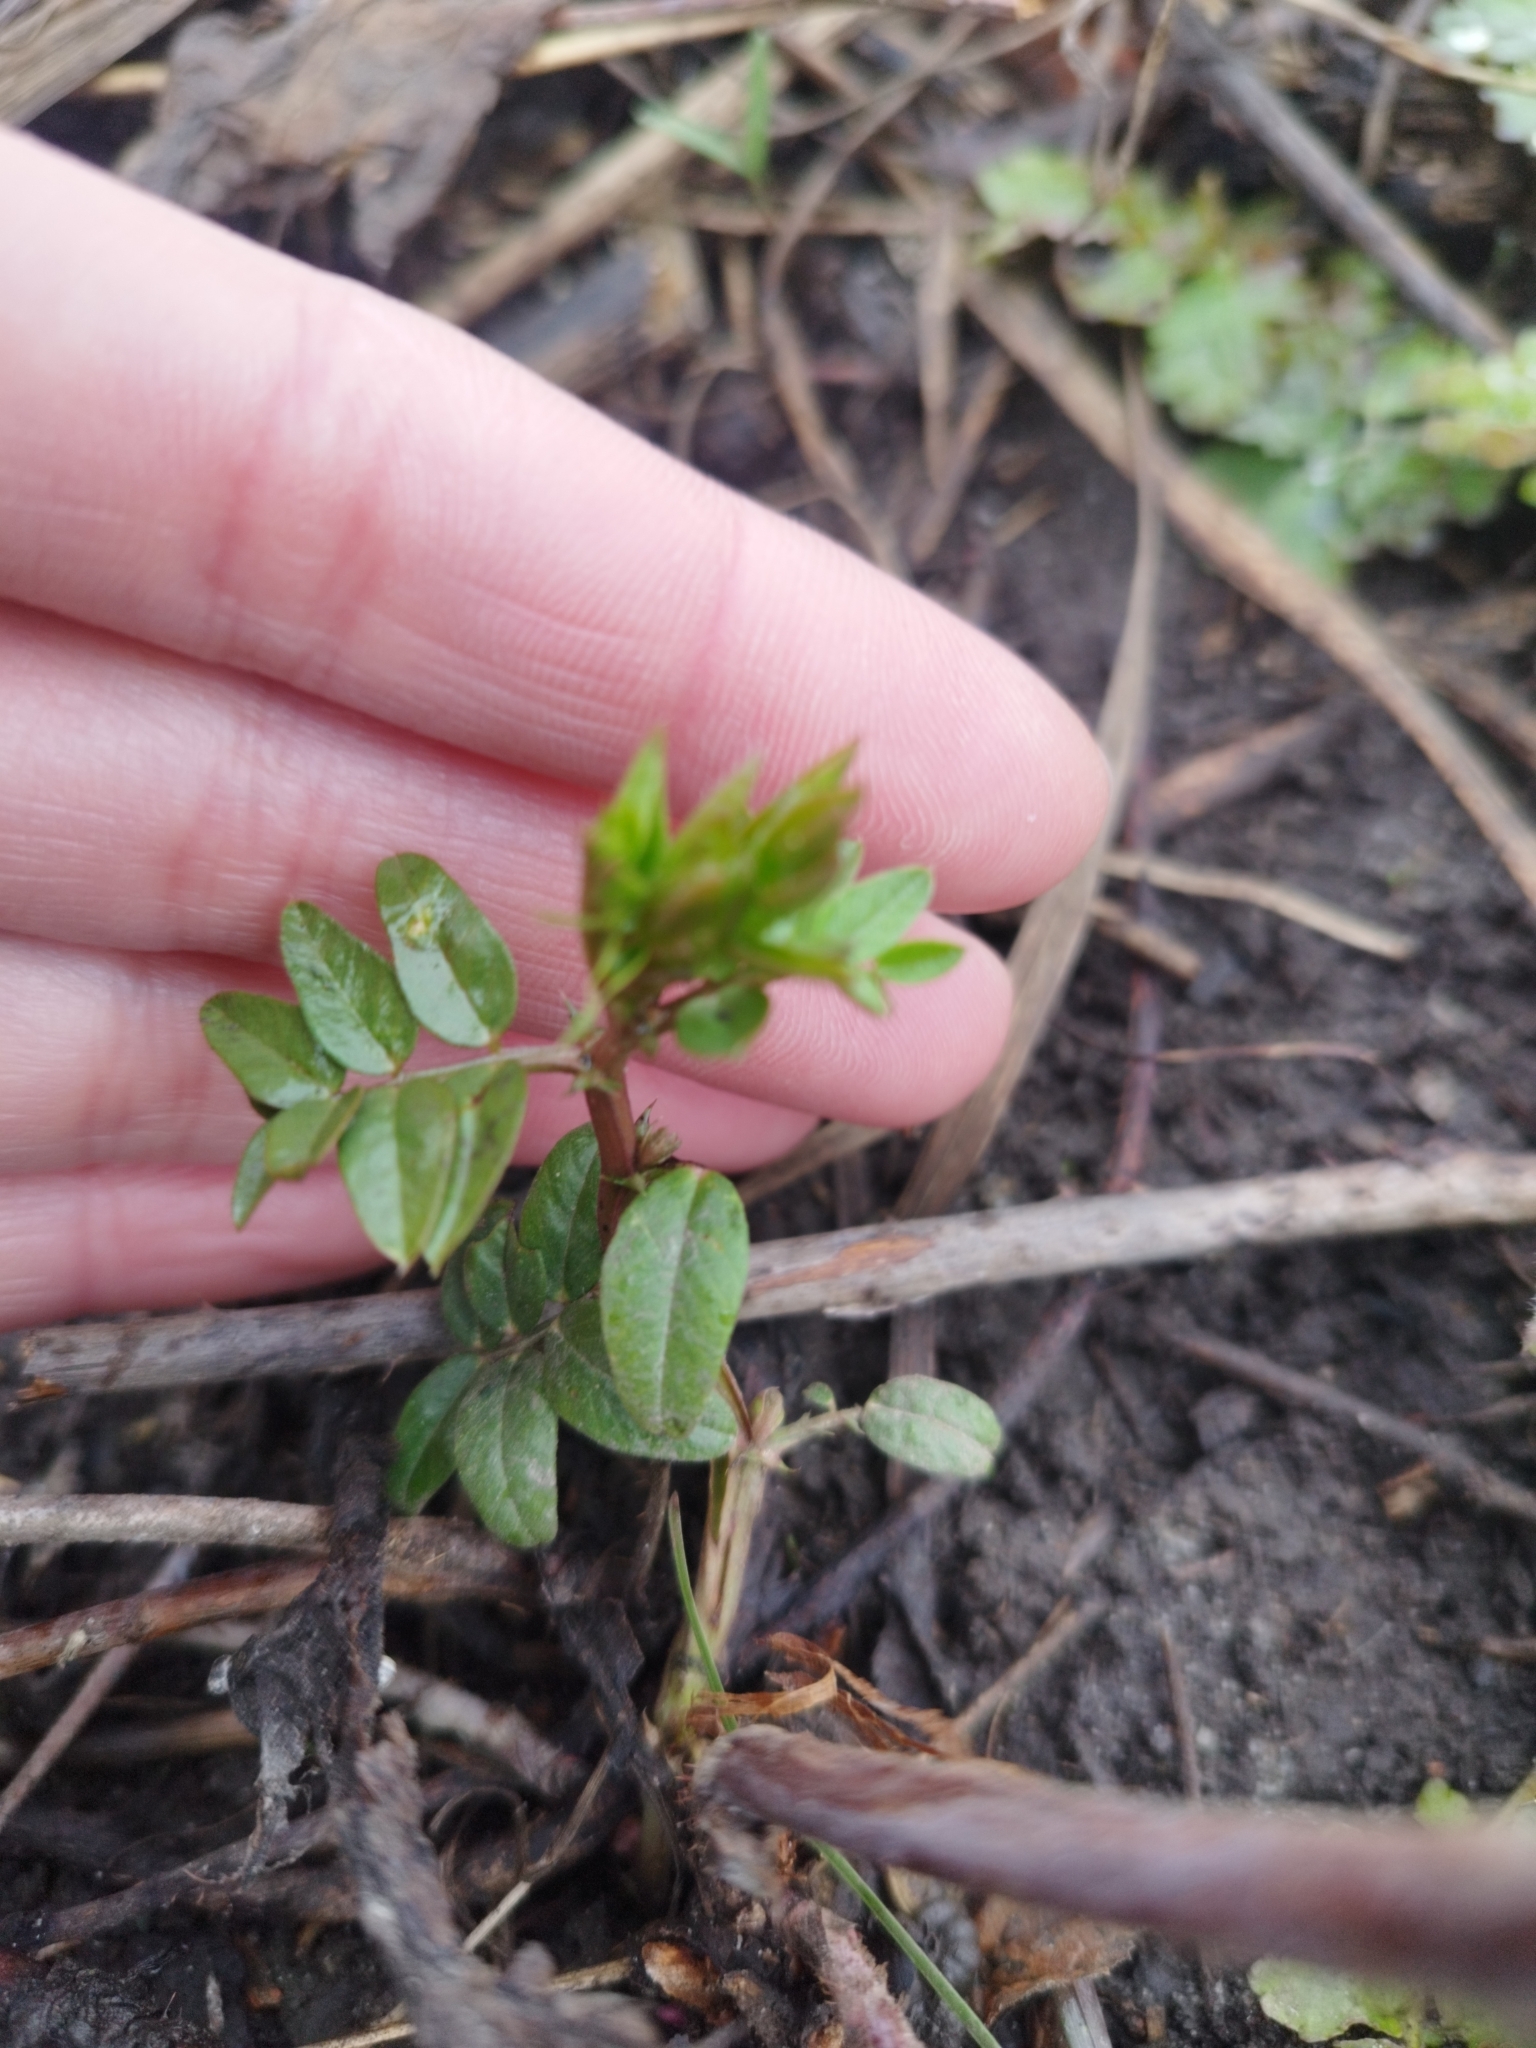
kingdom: Plantae
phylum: Tracheophyta
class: Magnoliopsida
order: Fabales
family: Fabaceae
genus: Vicia
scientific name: Vicia sepium
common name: Bush vetch
